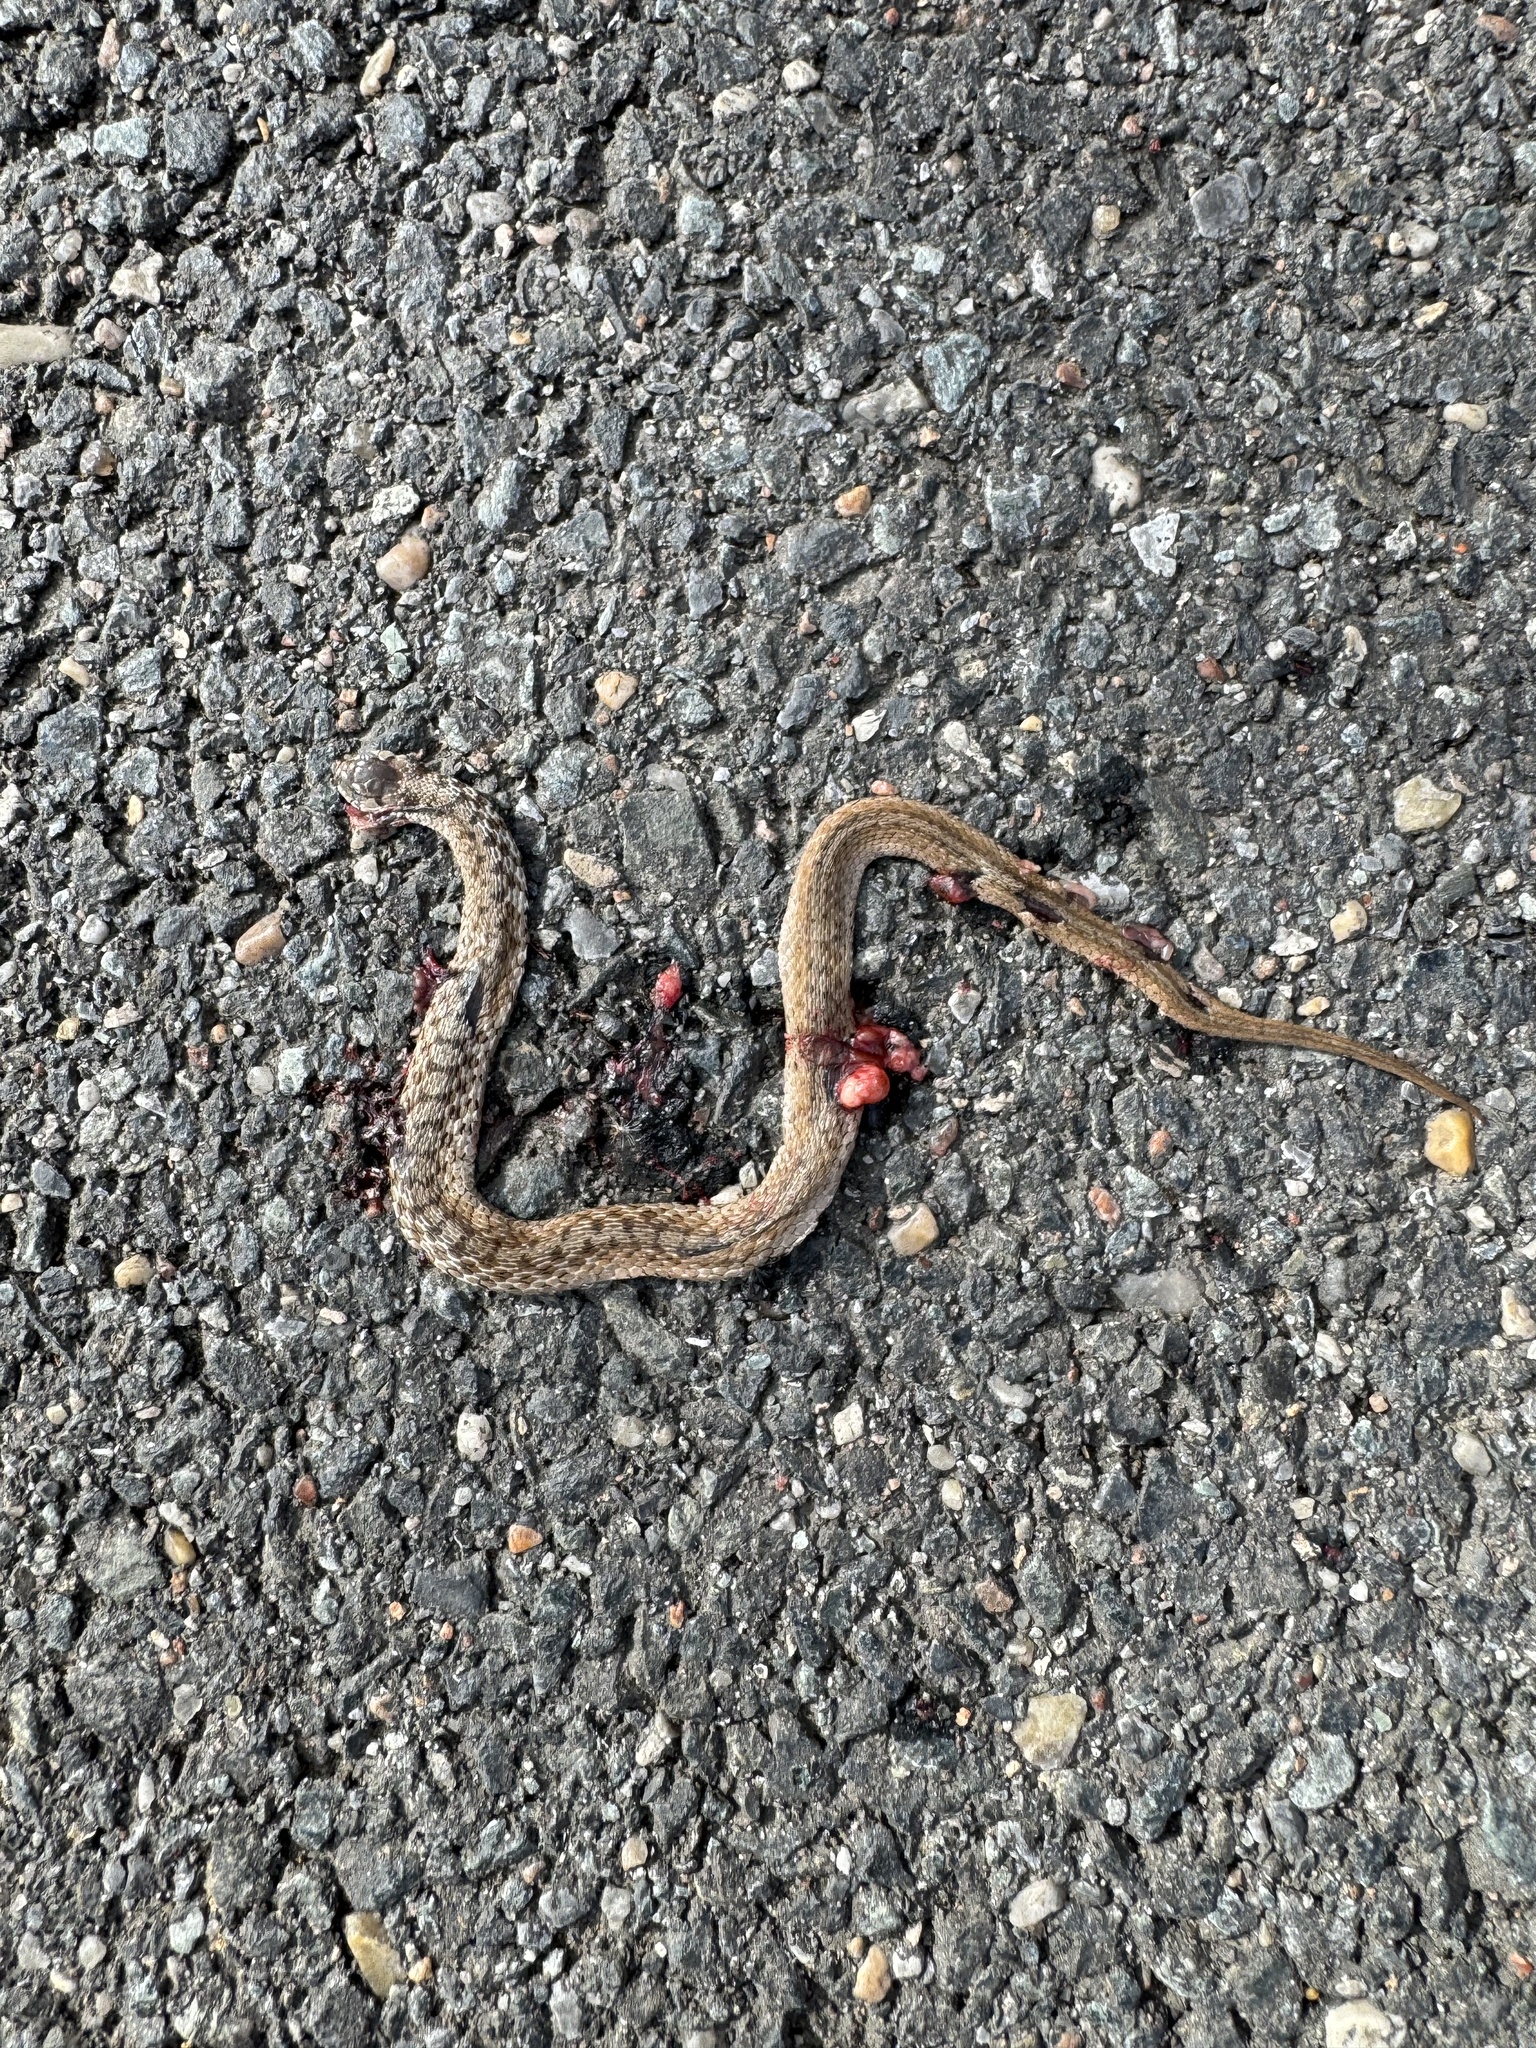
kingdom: Animalia
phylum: Chordata
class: Squamata
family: Colubridae
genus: Storeria
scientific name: Storeria dekayi
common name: (dekay’s) brown snake
